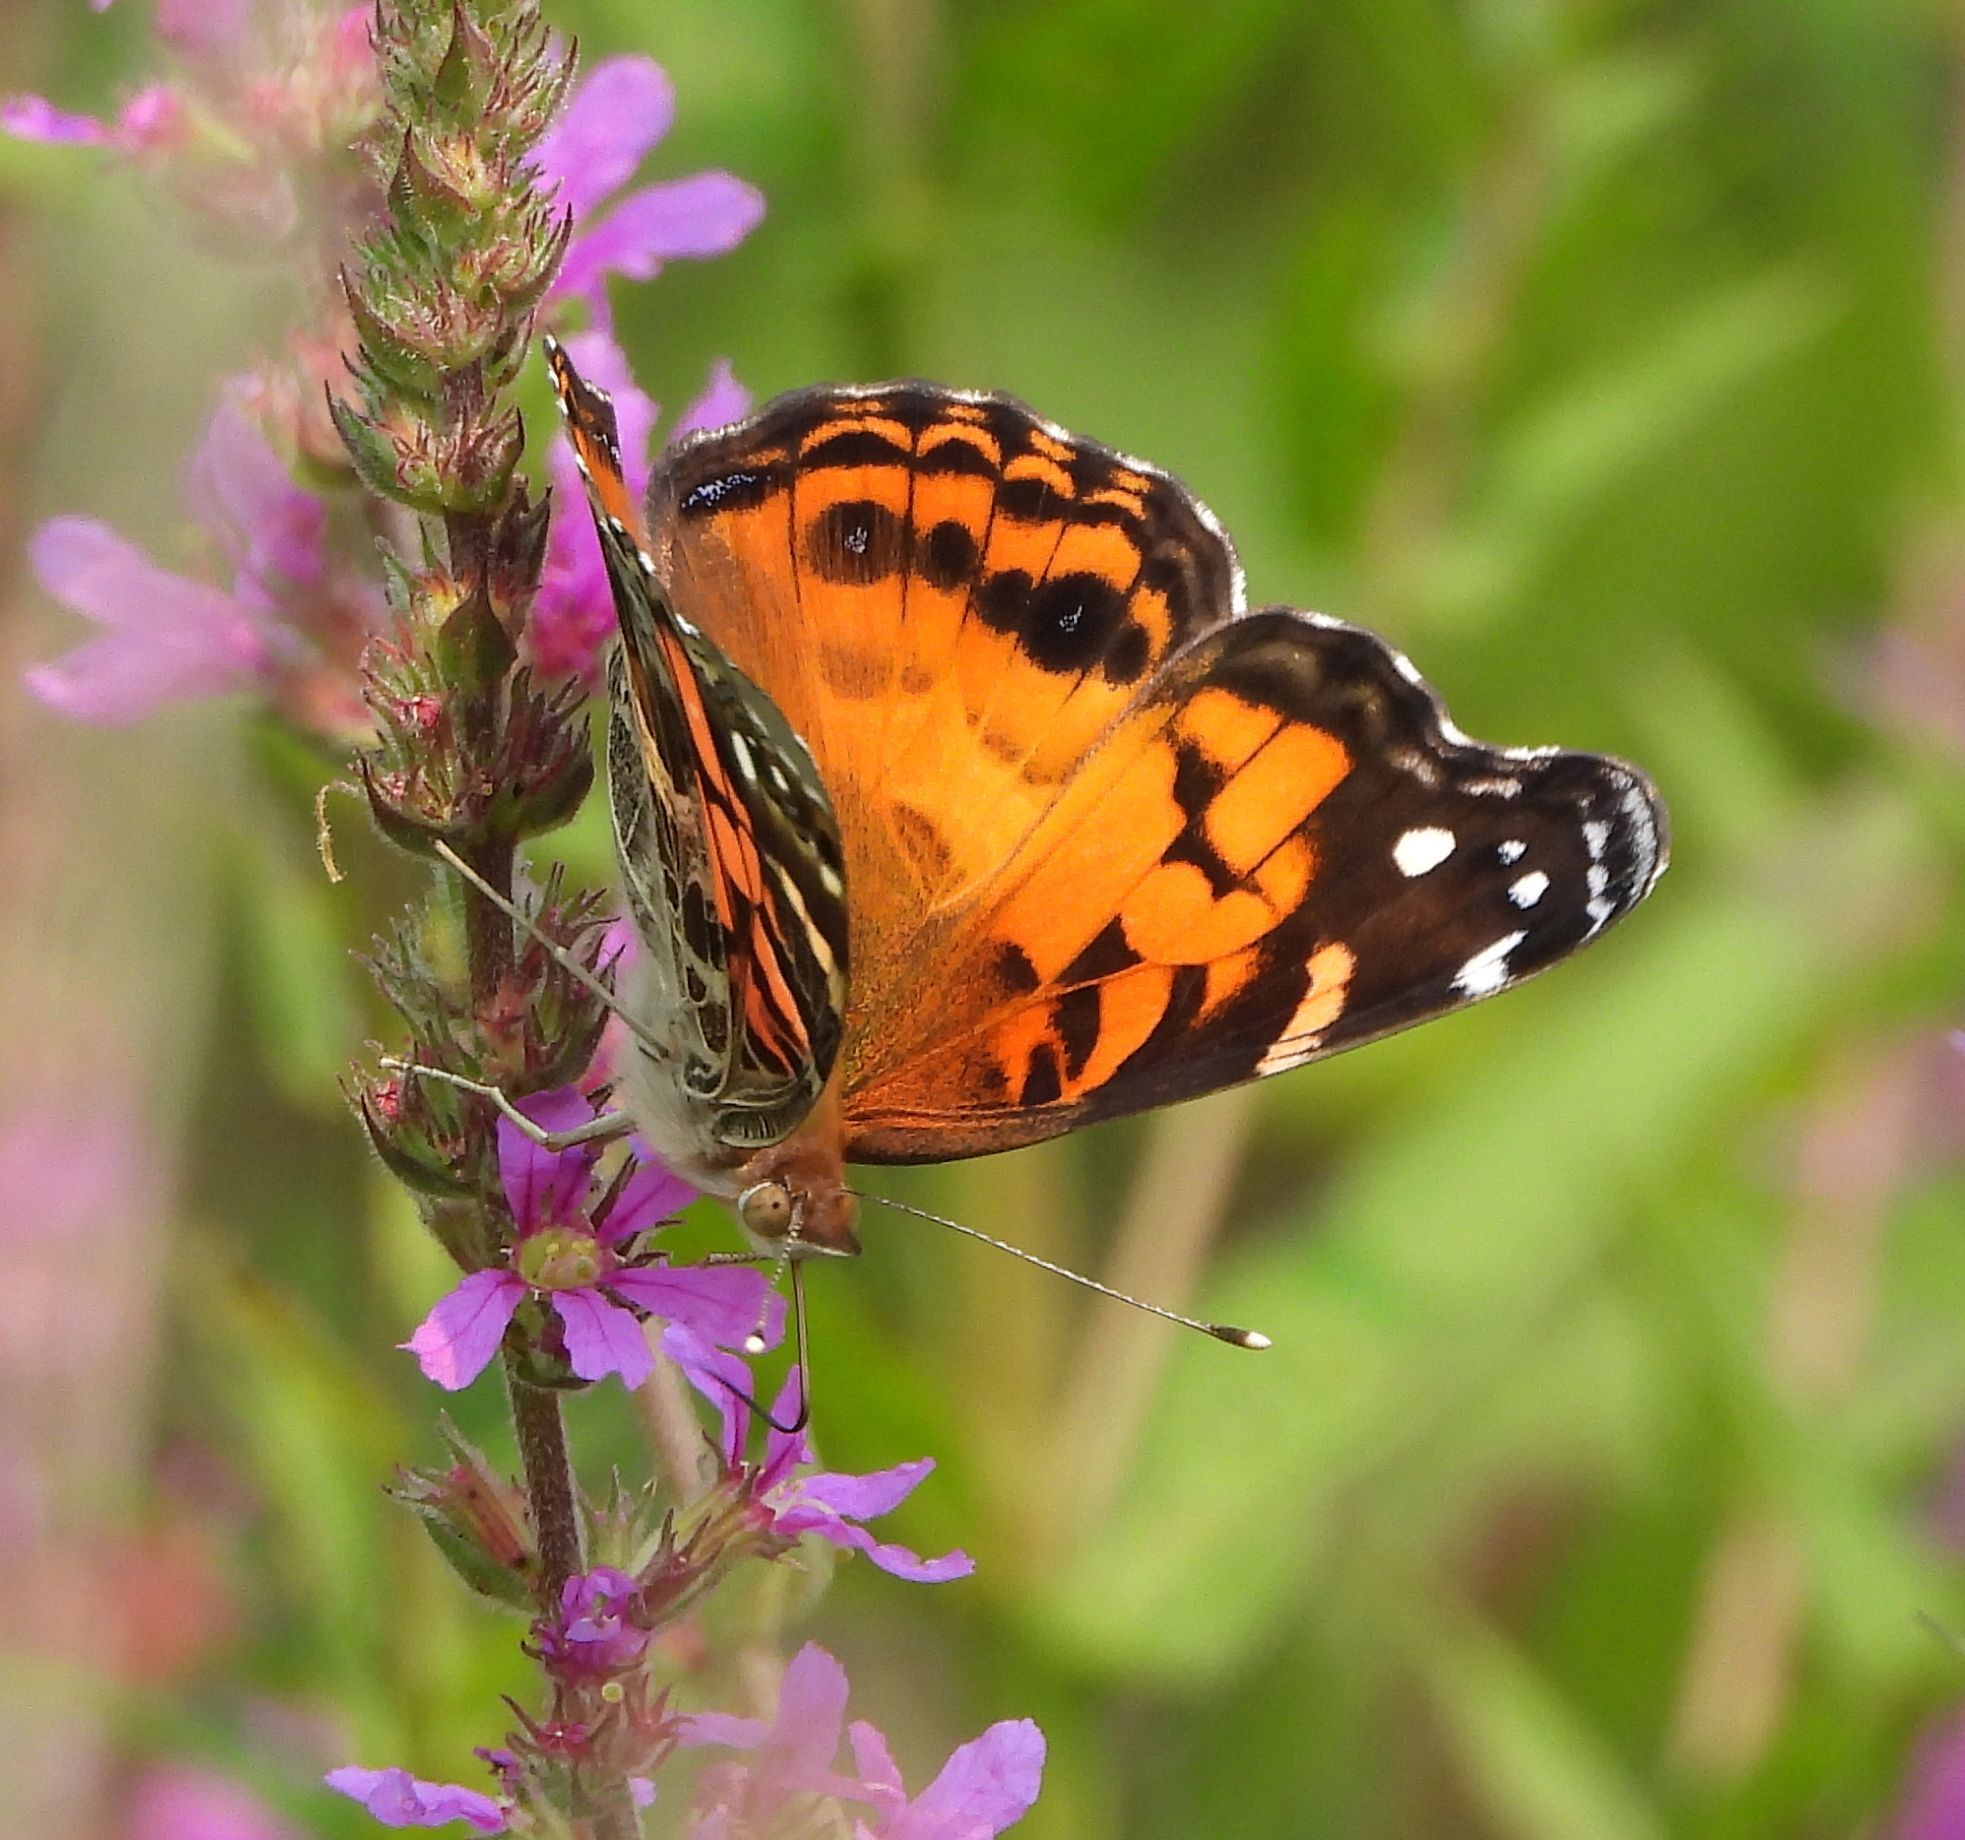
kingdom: Animalia
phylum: Arthropoda
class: Insecta
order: Lepidoptera
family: Nymphalidae
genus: Vanessa
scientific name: Vanessa virginiensis
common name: American lady
